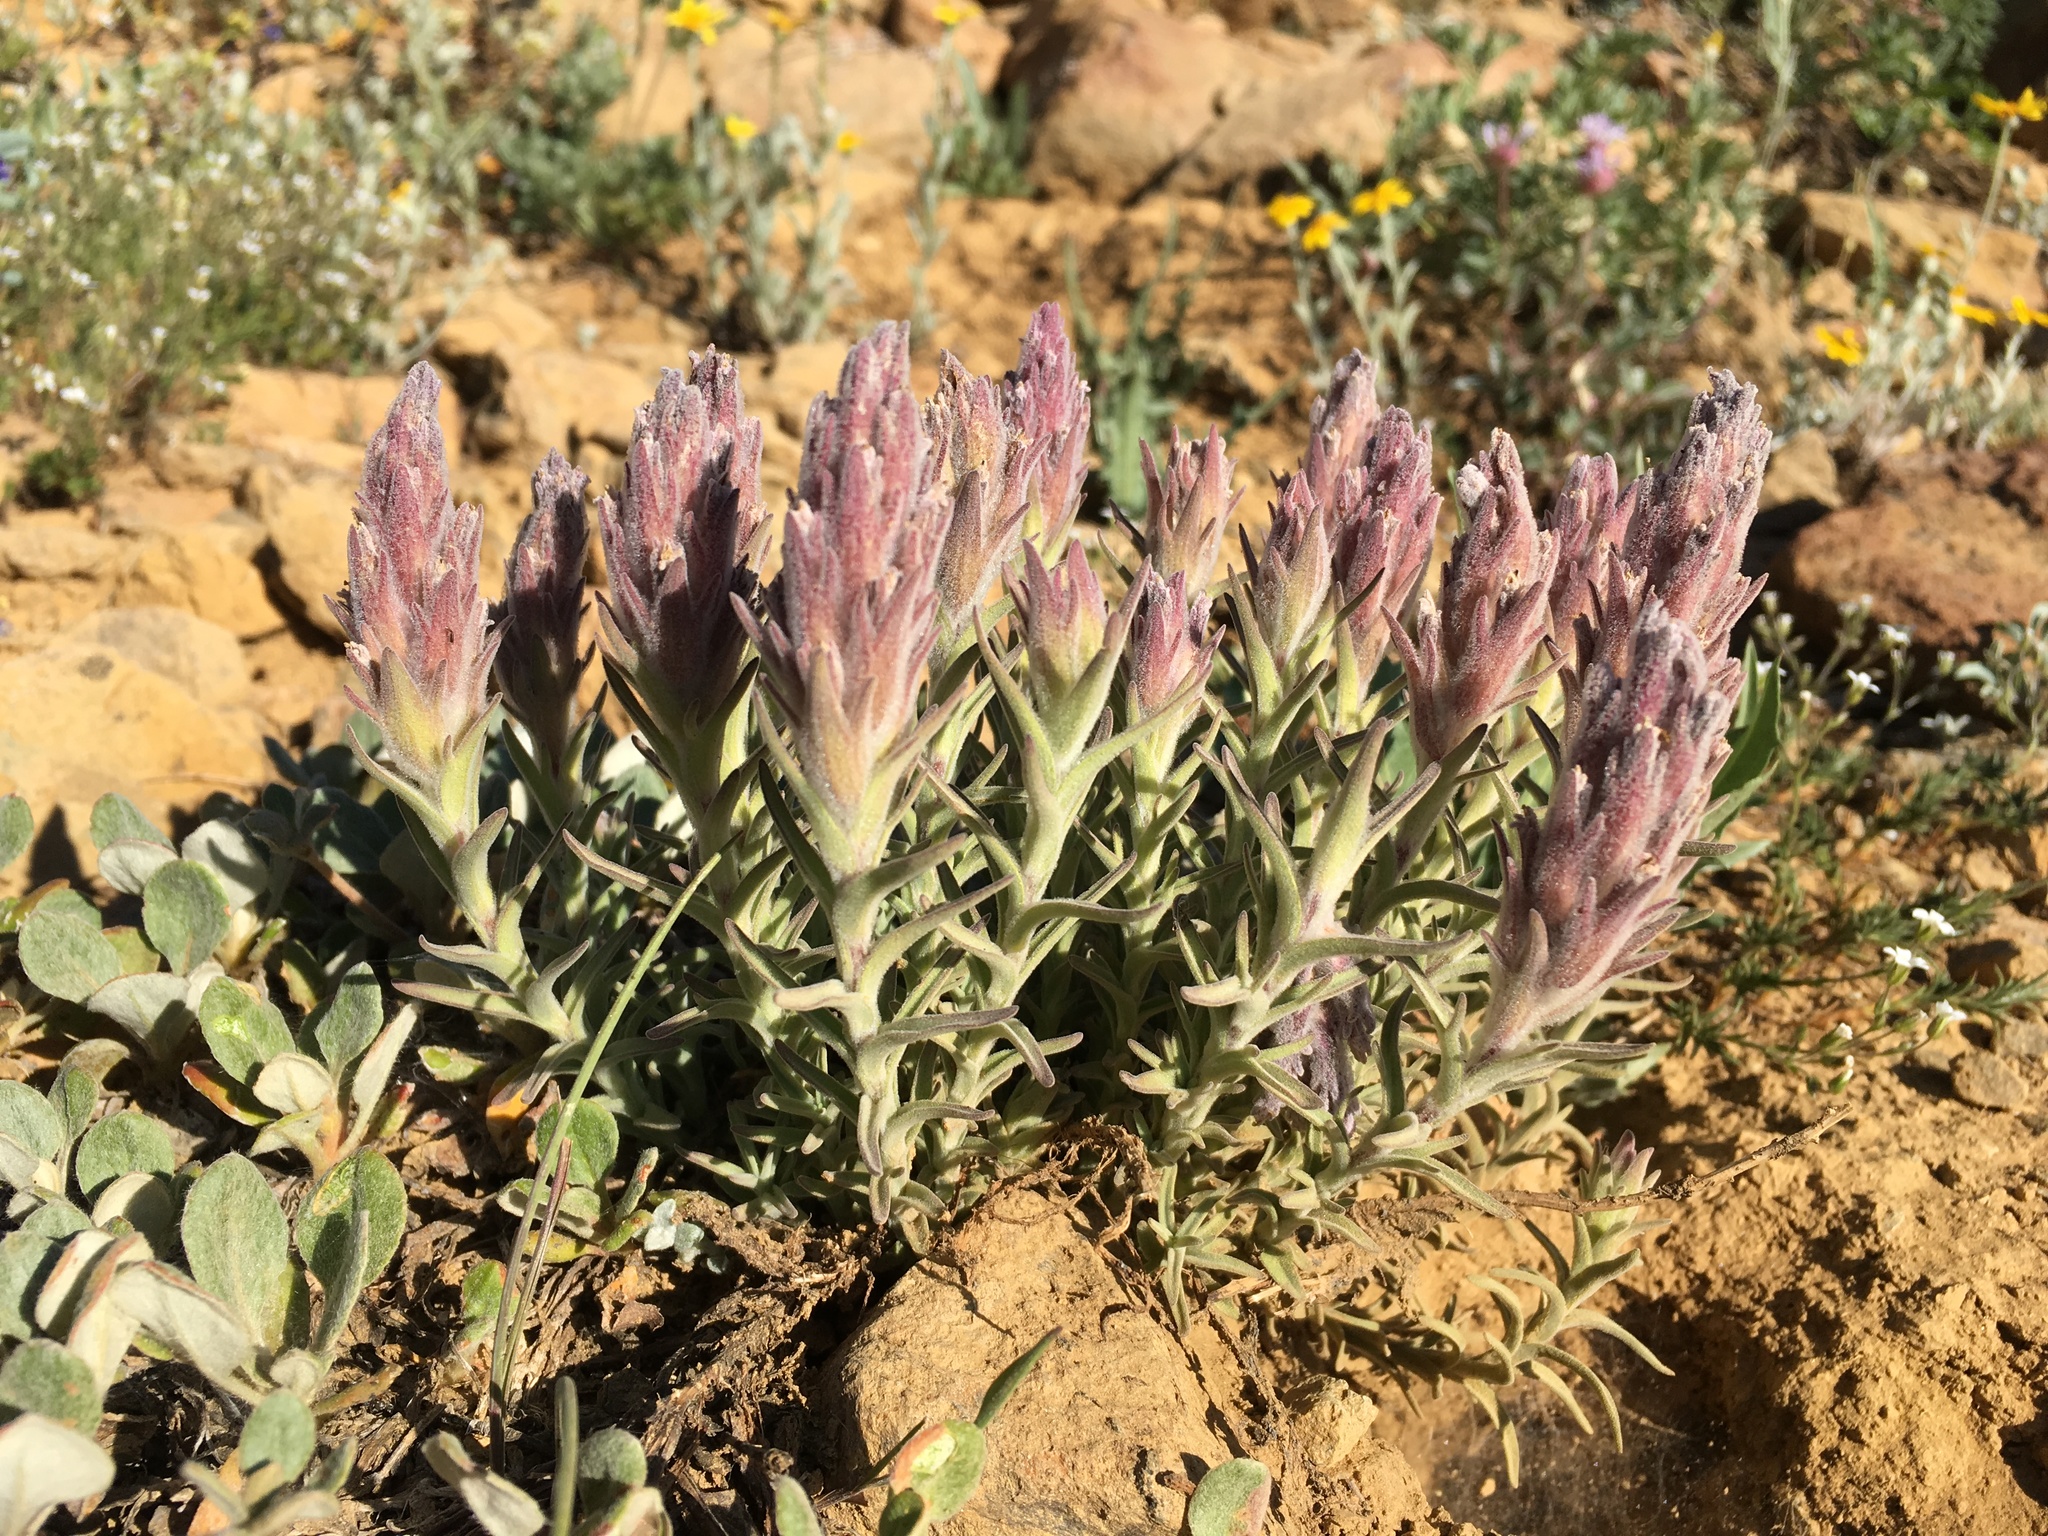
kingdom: Plantae
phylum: Tracheophyta
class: Magnoliopsida
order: Lamiales
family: Orobanchaceae
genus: Castilleja
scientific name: Castilleja schizotricha
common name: Split-hair indian paintbrush
